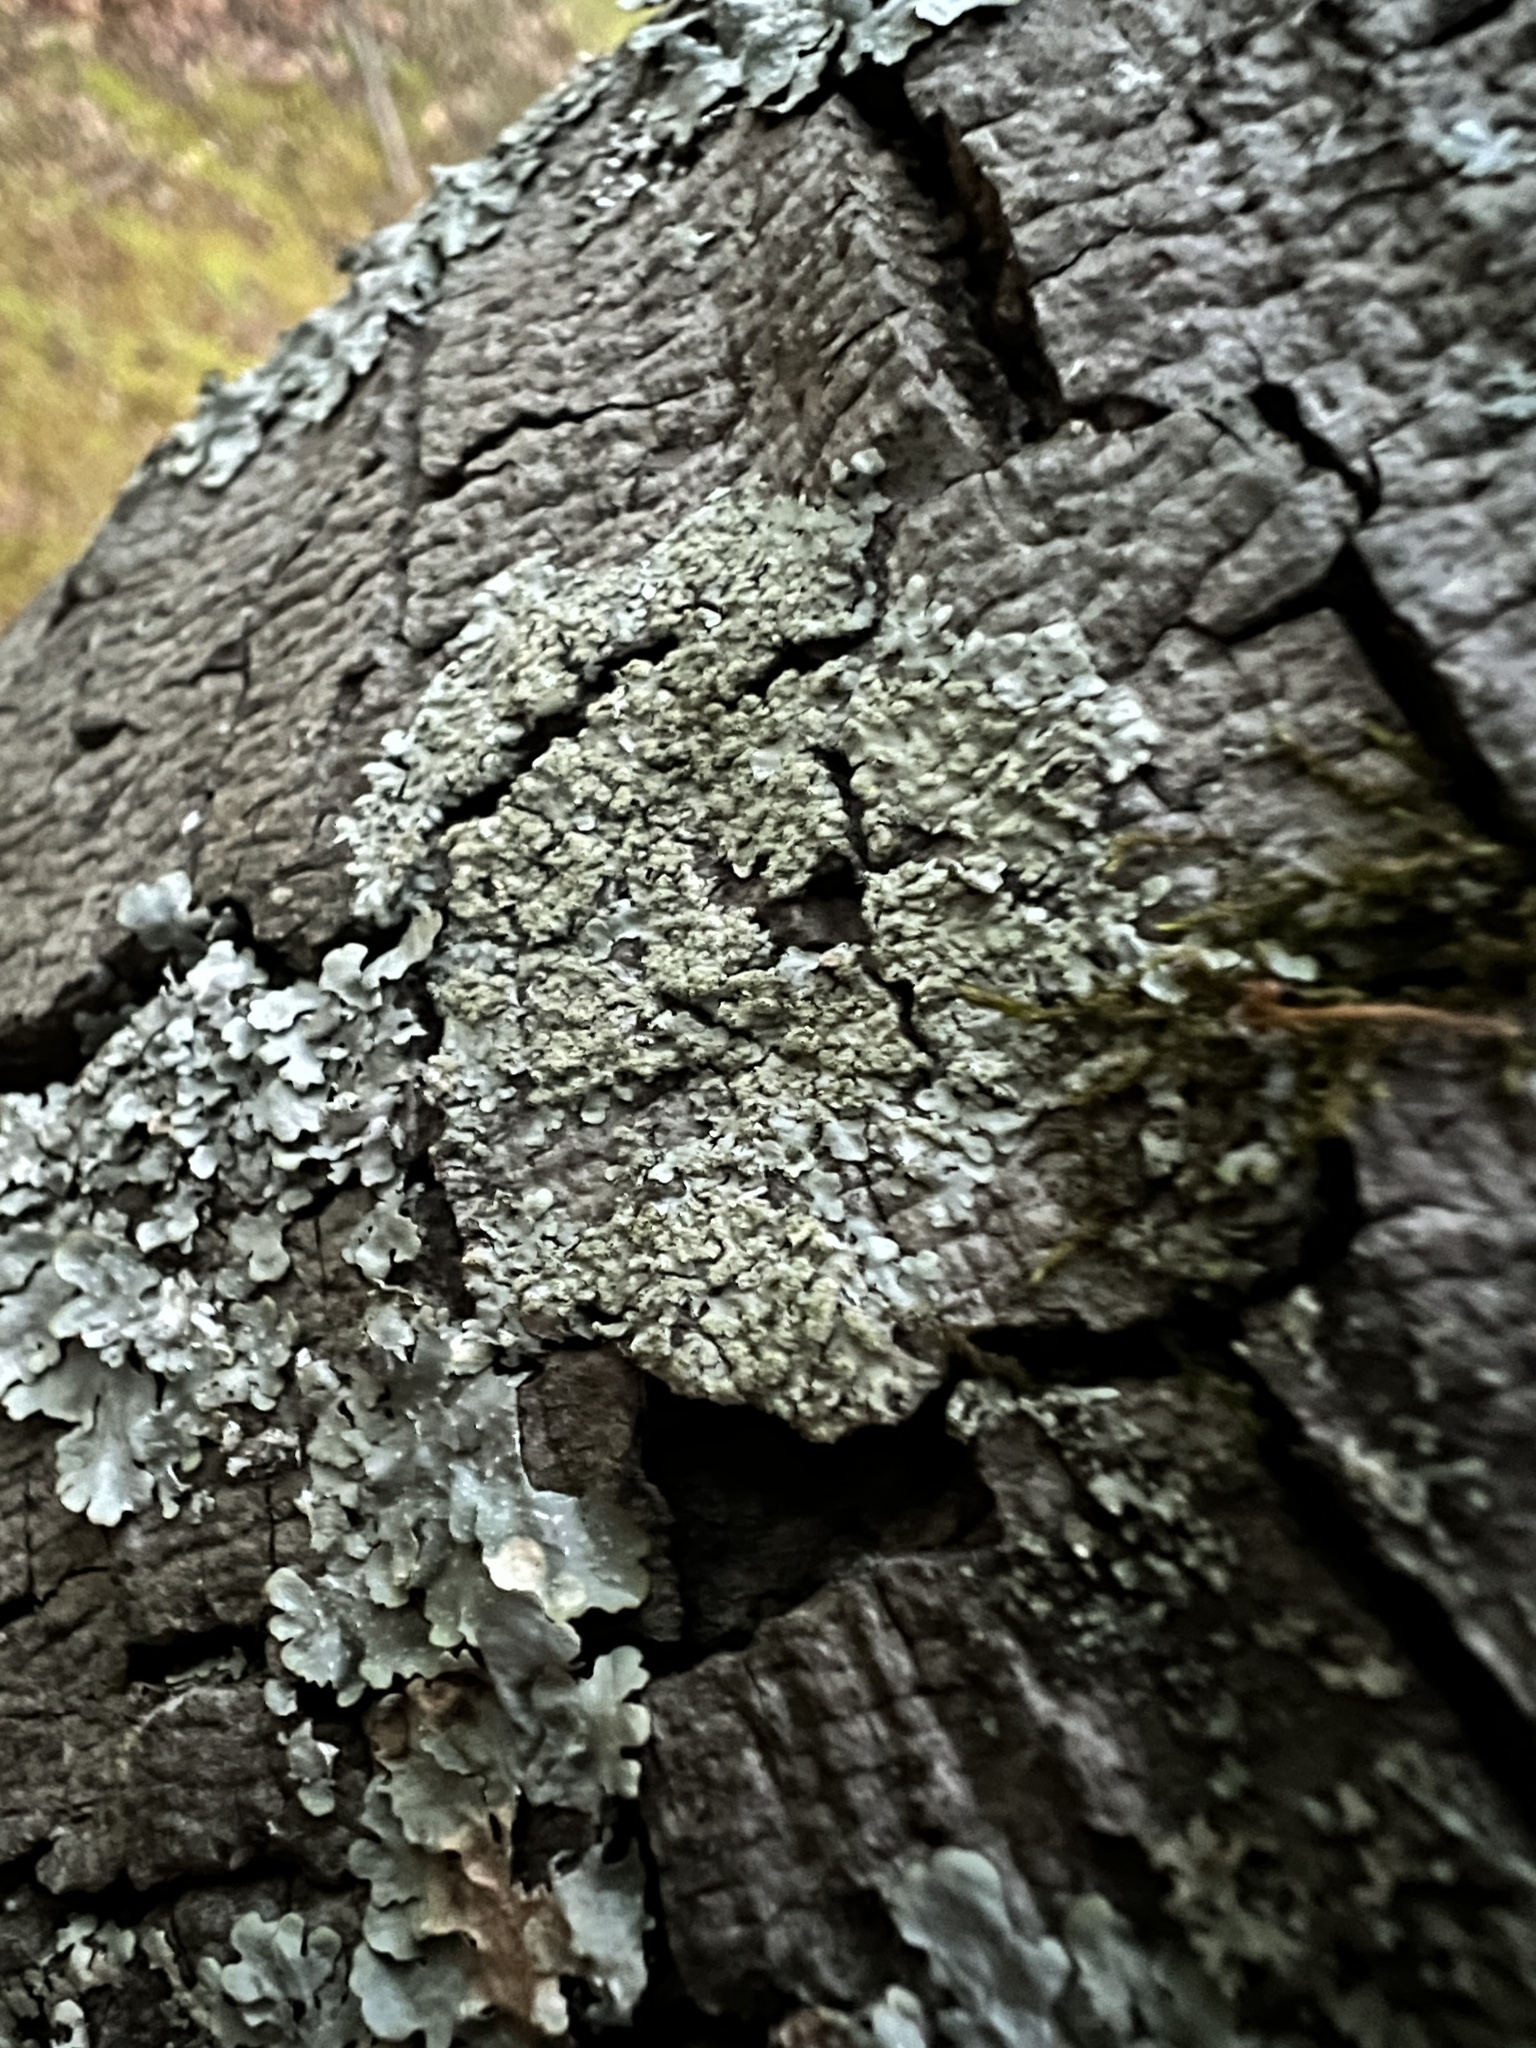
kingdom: Fungi
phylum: Ascomycota
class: Lecanoromycetes
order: Caliciales
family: Caliciaceae
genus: Pyxine
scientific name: Pyxine subcinerea
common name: Mustard lichen
